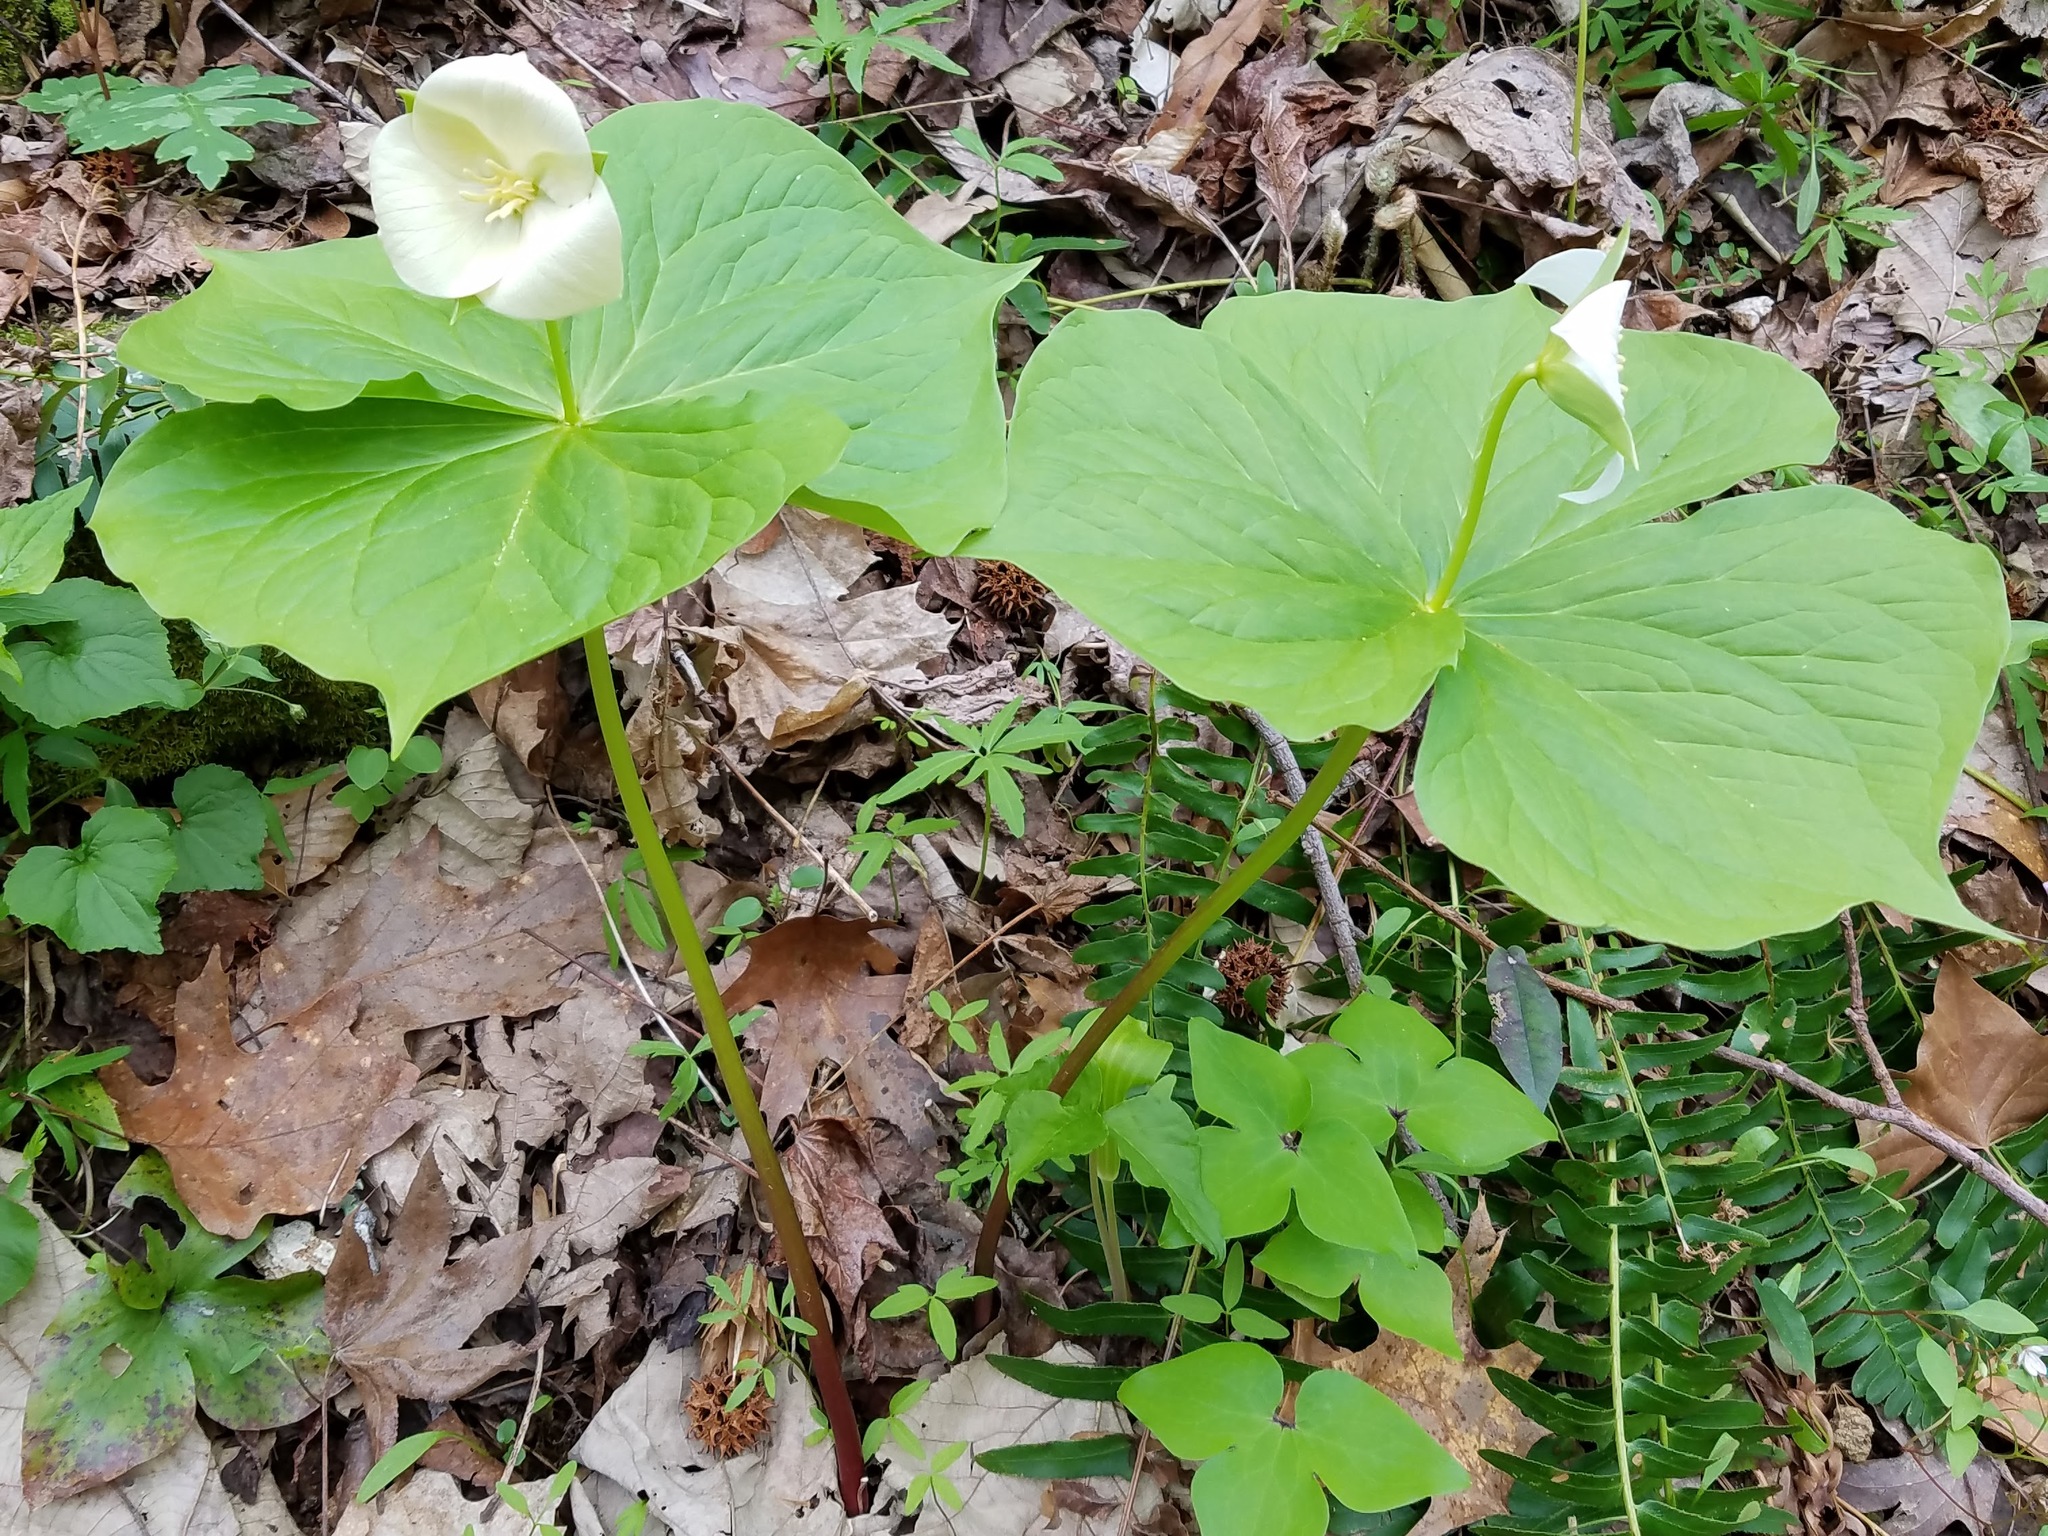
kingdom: Plantae
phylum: Tracheophyta
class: Liliopsida
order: Liliales
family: Melanthiaceae
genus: Trillium
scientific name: Trillium flexipes
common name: Drooping trillium
